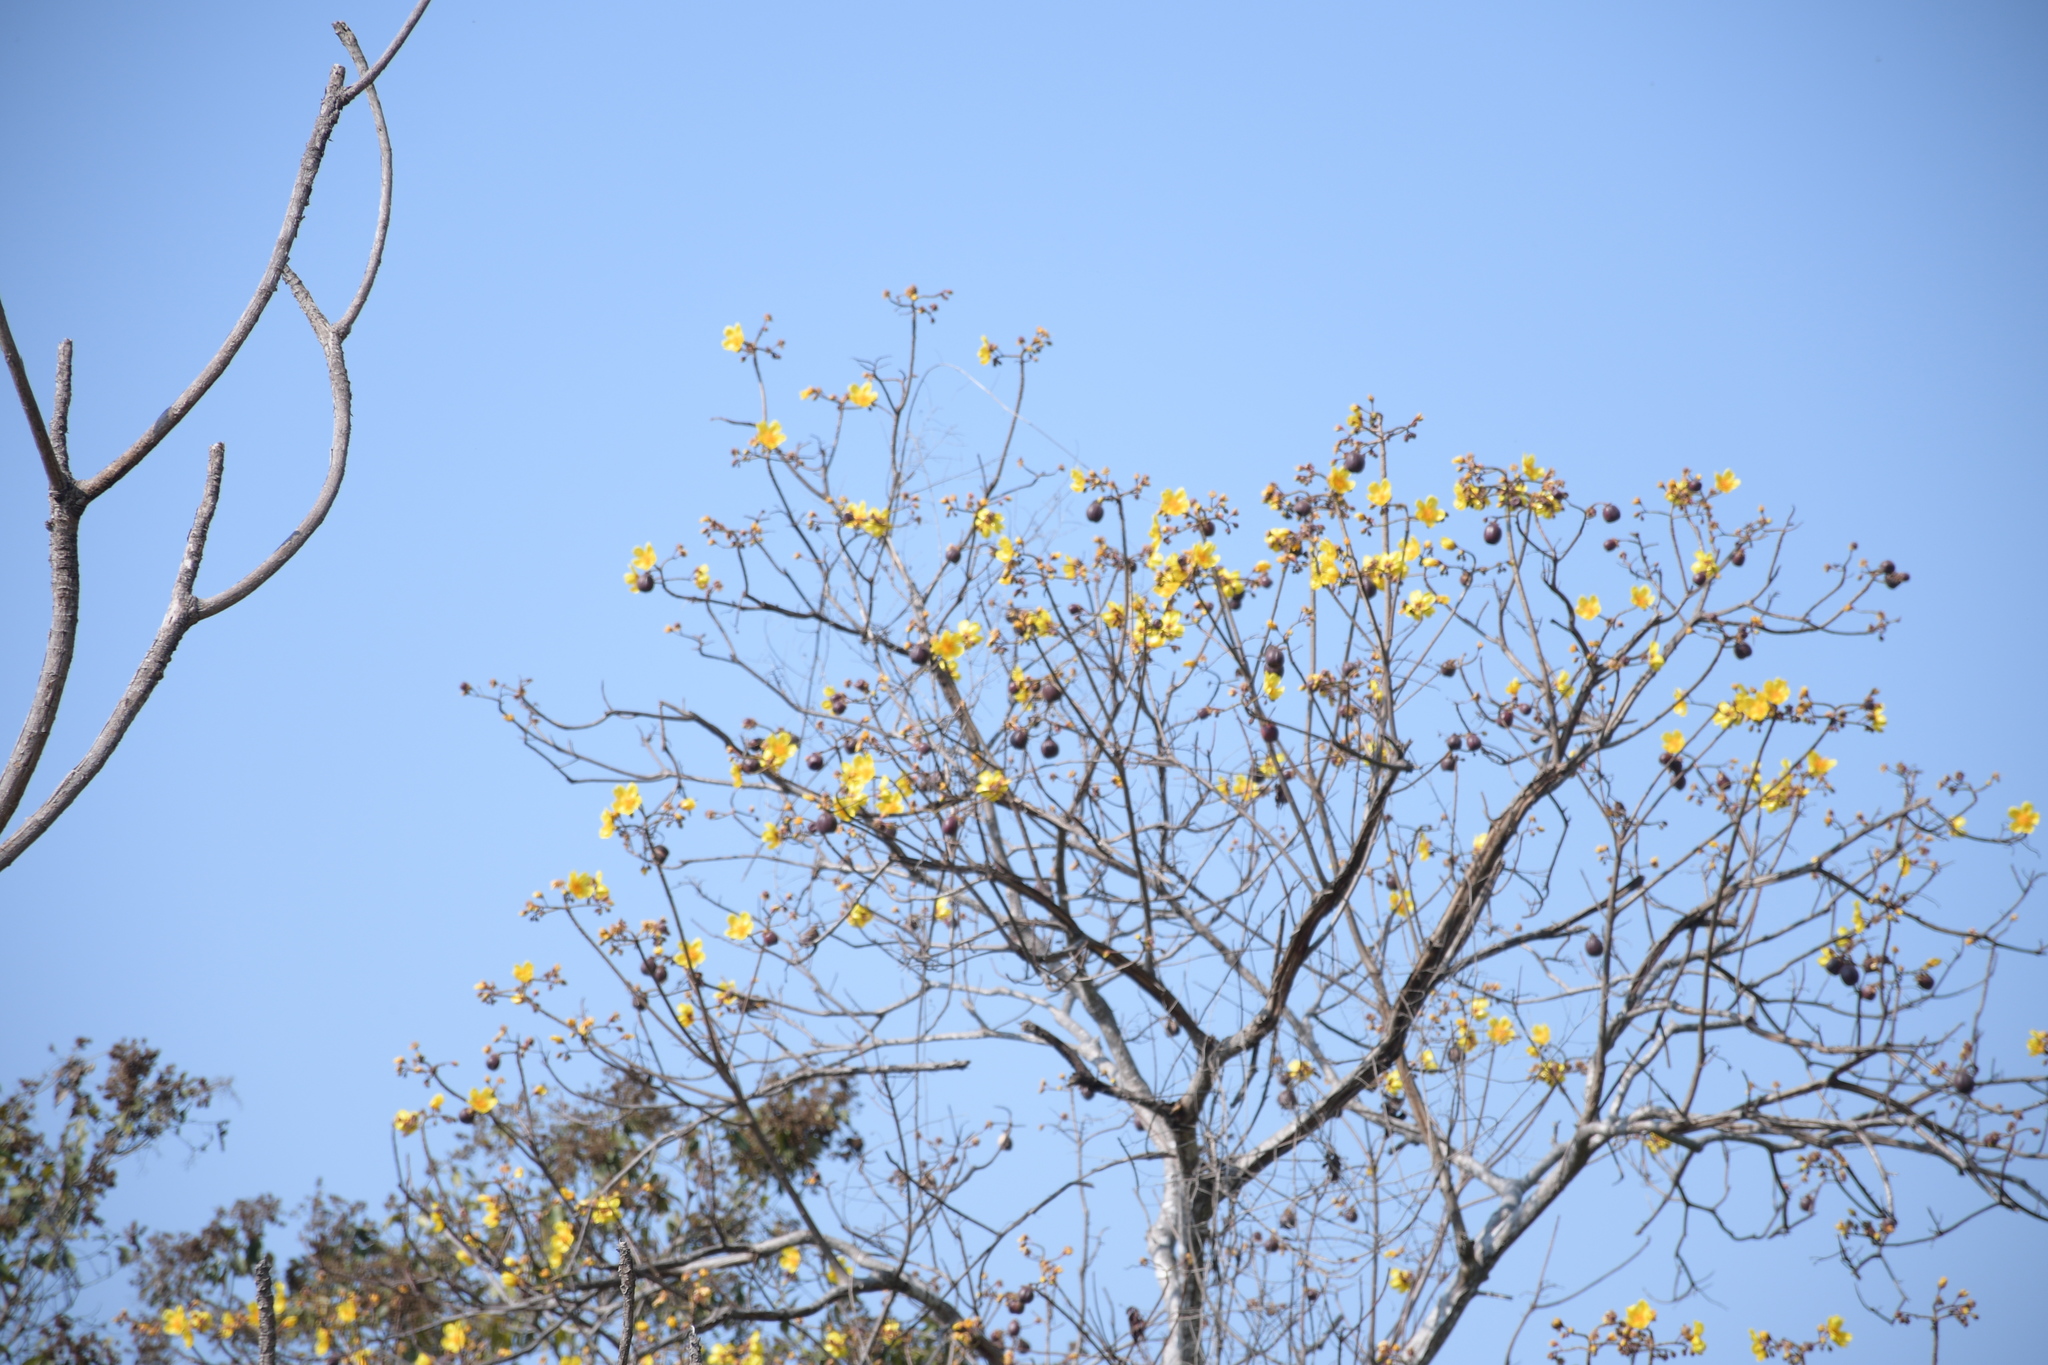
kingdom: Plantae
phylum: Tracheophyta
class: Magnoliopsida
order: Malvales
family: Cochlospermaceae
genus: Cochlospermum
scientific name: Cochlospermum vitifolium
